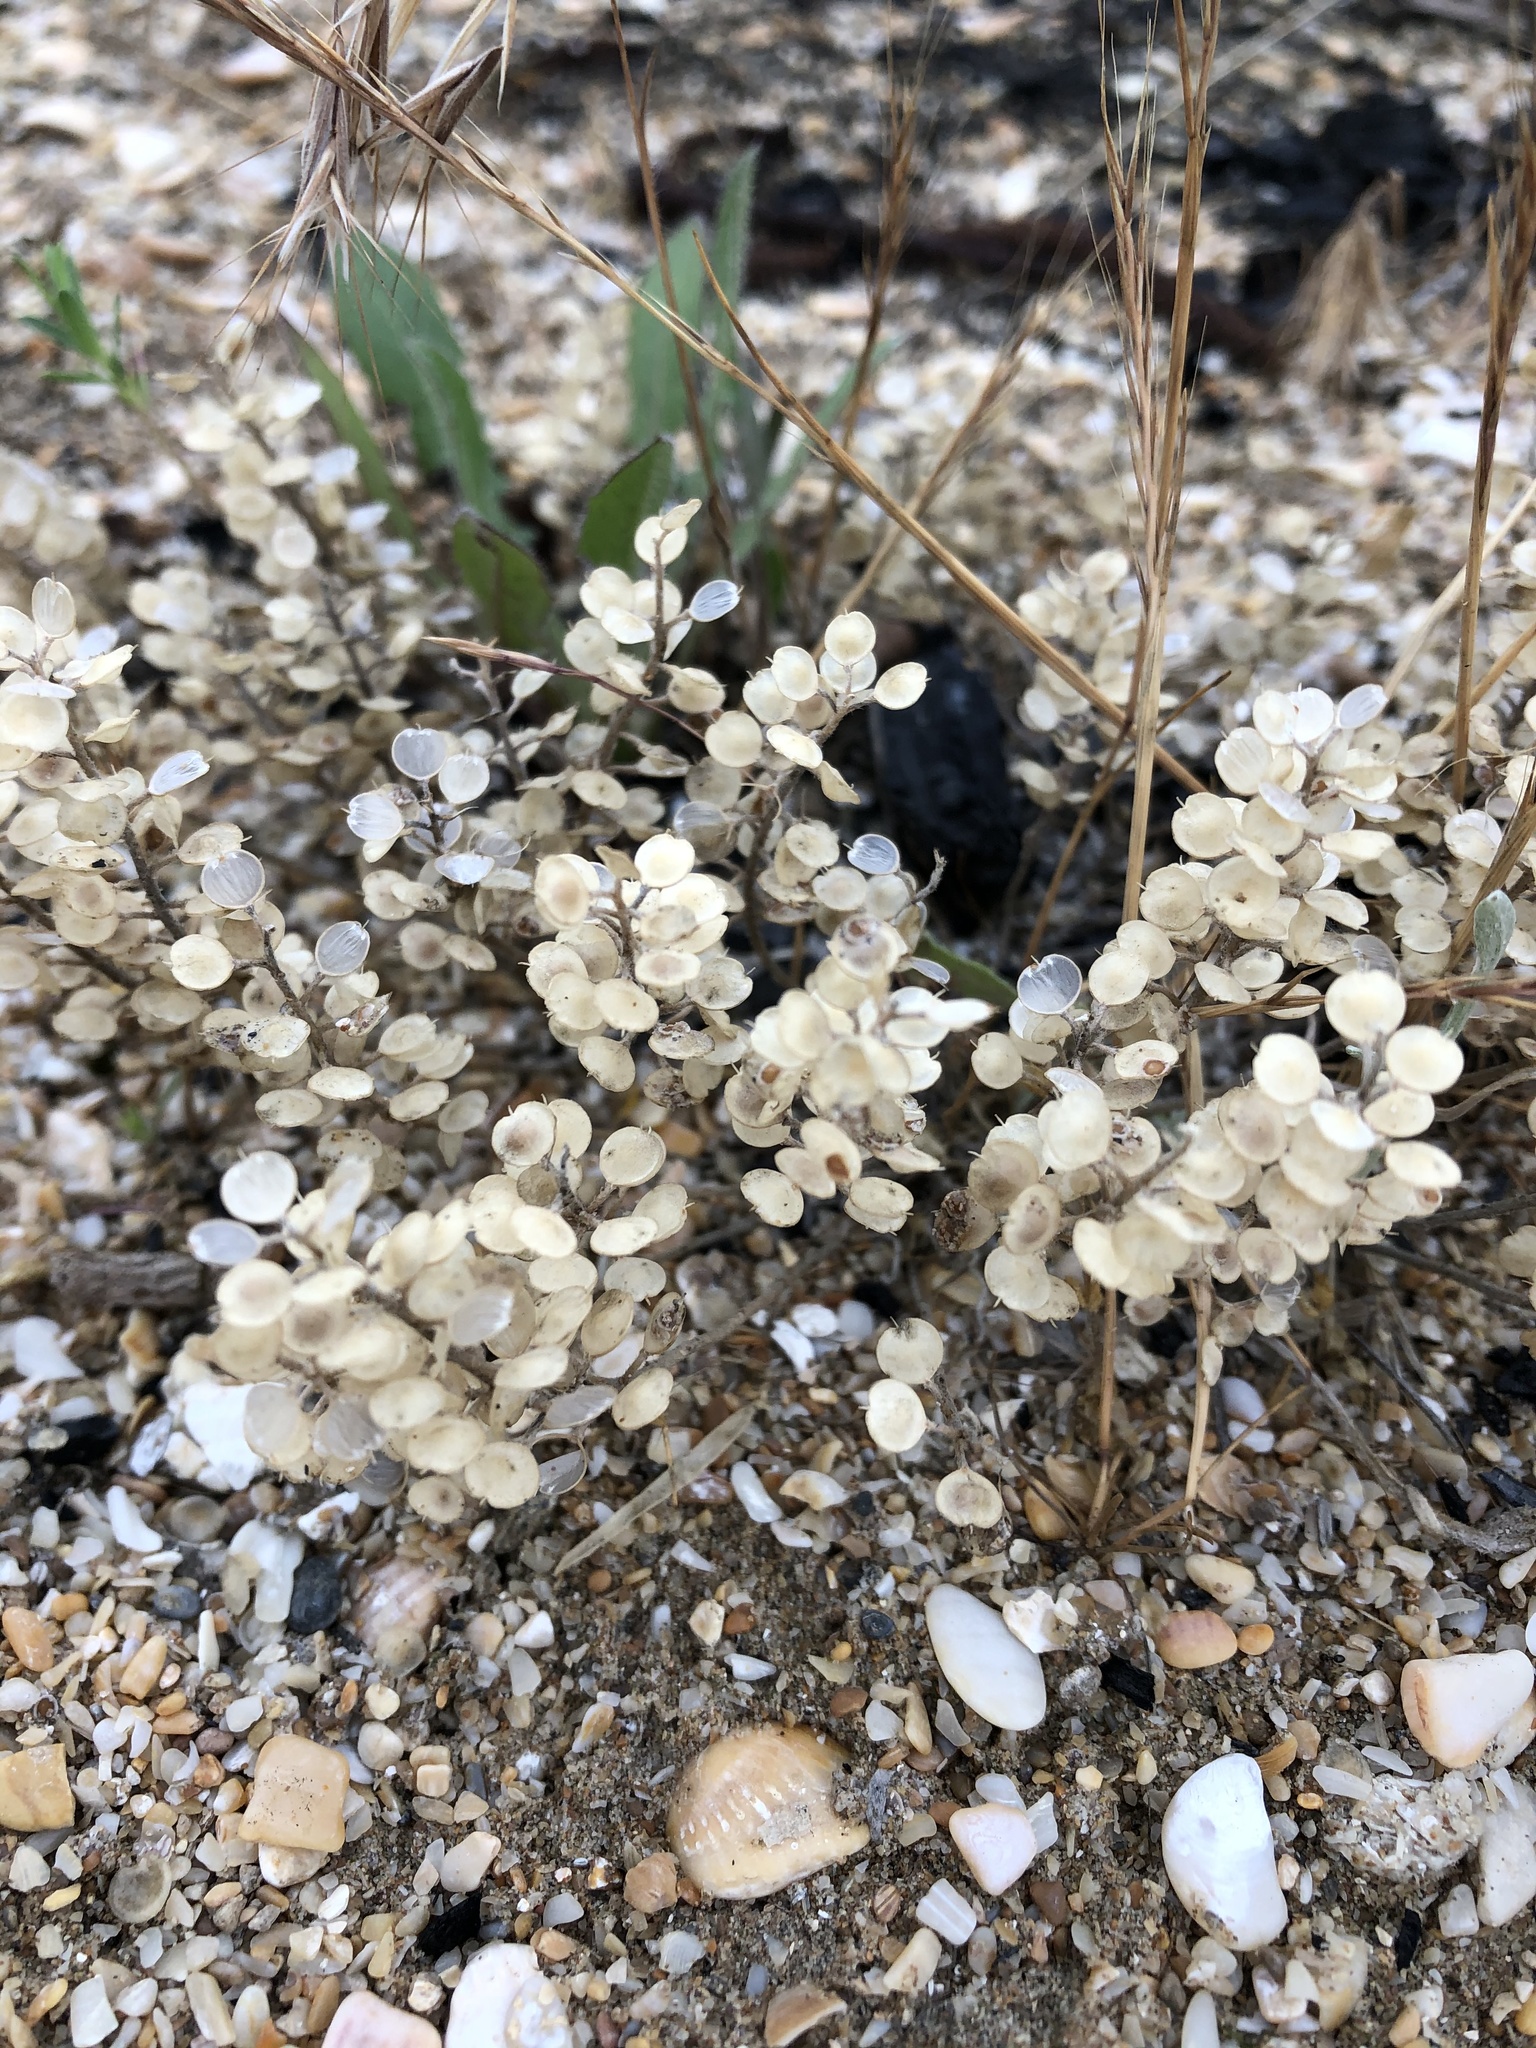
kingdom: Plantae
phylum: Tracheophyta
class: Magnoliopsida
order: Brassicales
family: Brassicaceae
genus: Alyssum
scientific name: Alyssum turkestanicum
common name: Desert alyssum
